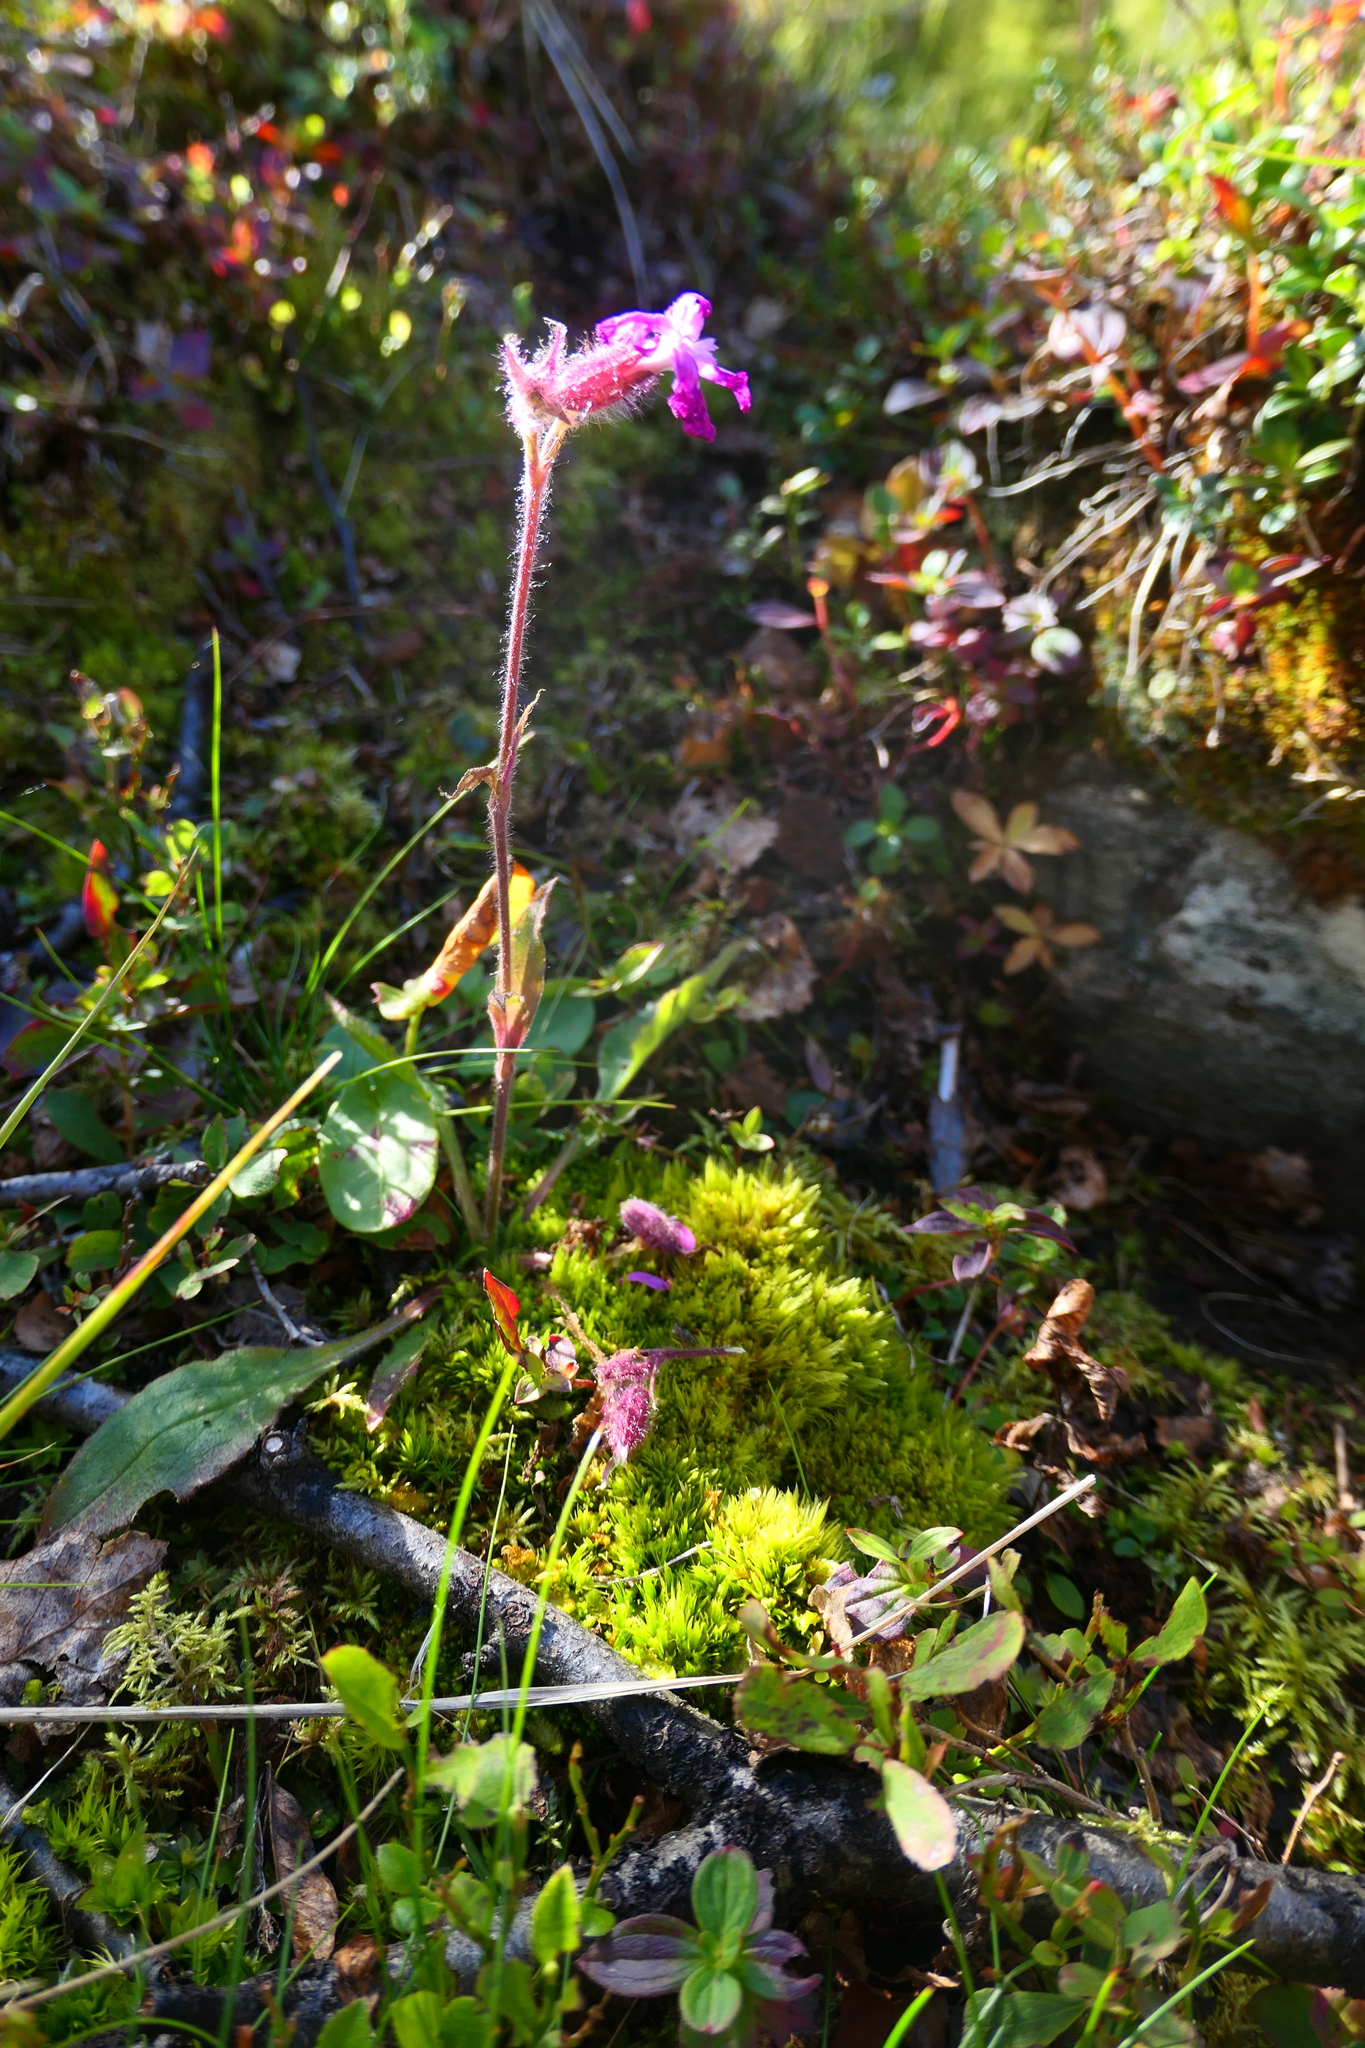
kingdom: Plantae
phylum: Tracheophyta
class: Magnoliopsida
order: Caryophyllales
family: Caryophyllaceae
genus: Silene
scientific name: Silene dioica
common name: Red campion
